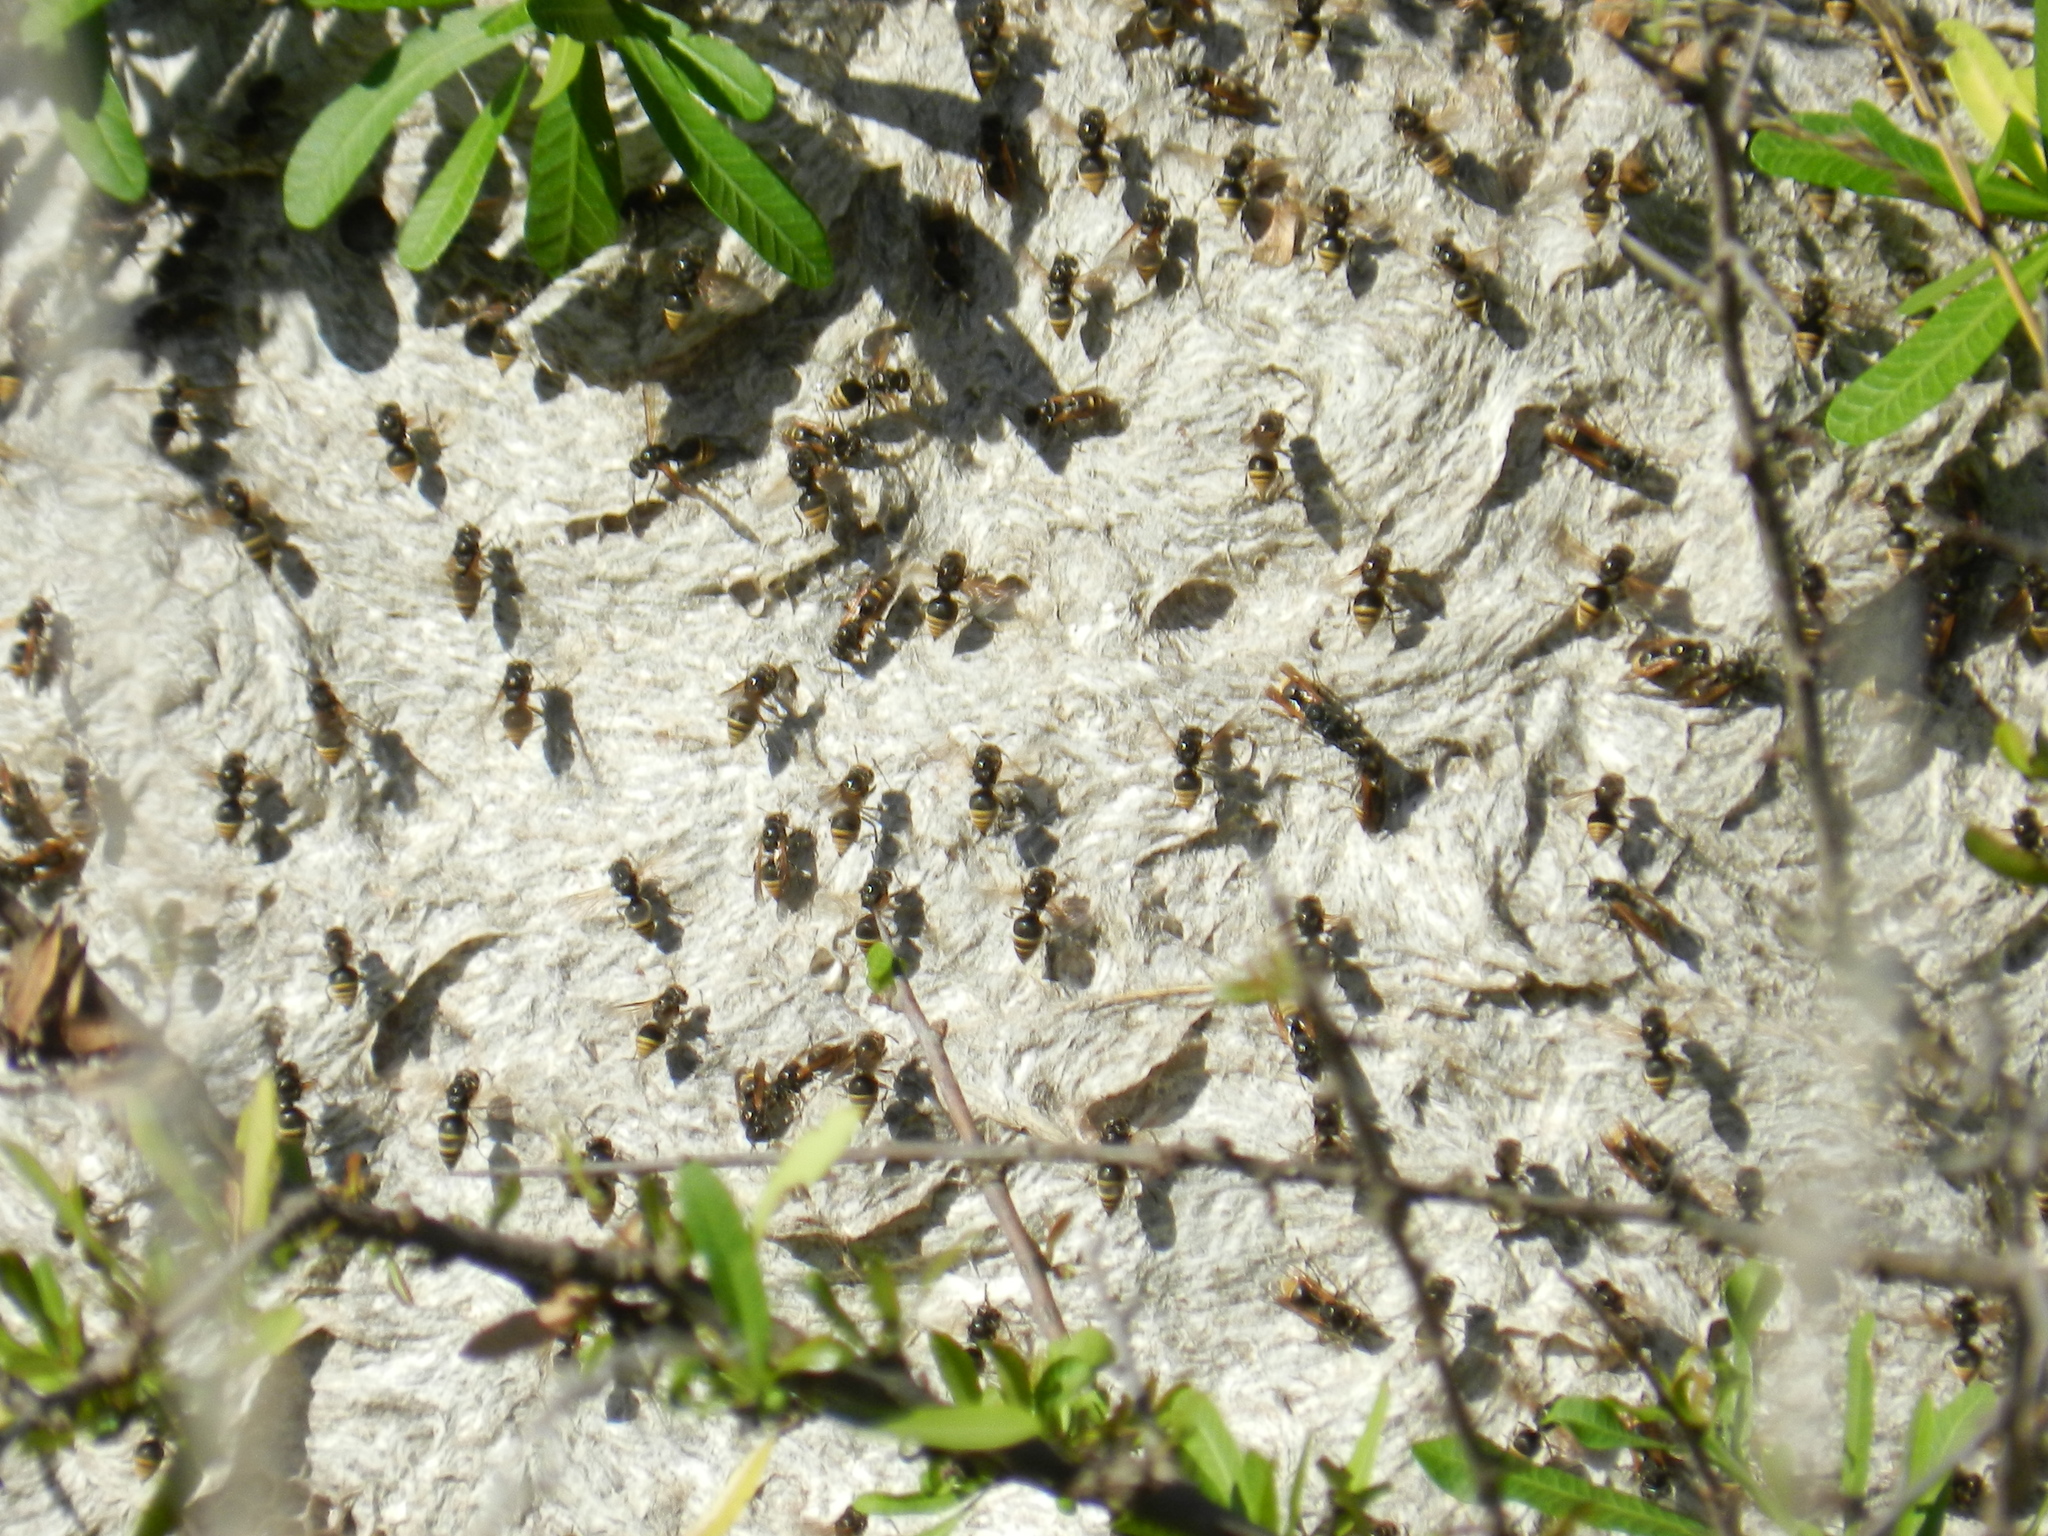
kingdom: Animalia
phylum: Arthropoda
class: Insecta
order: Hymenoptera
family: Vespidae
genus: Brachygastra
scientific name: Brachygastra lecheguana
